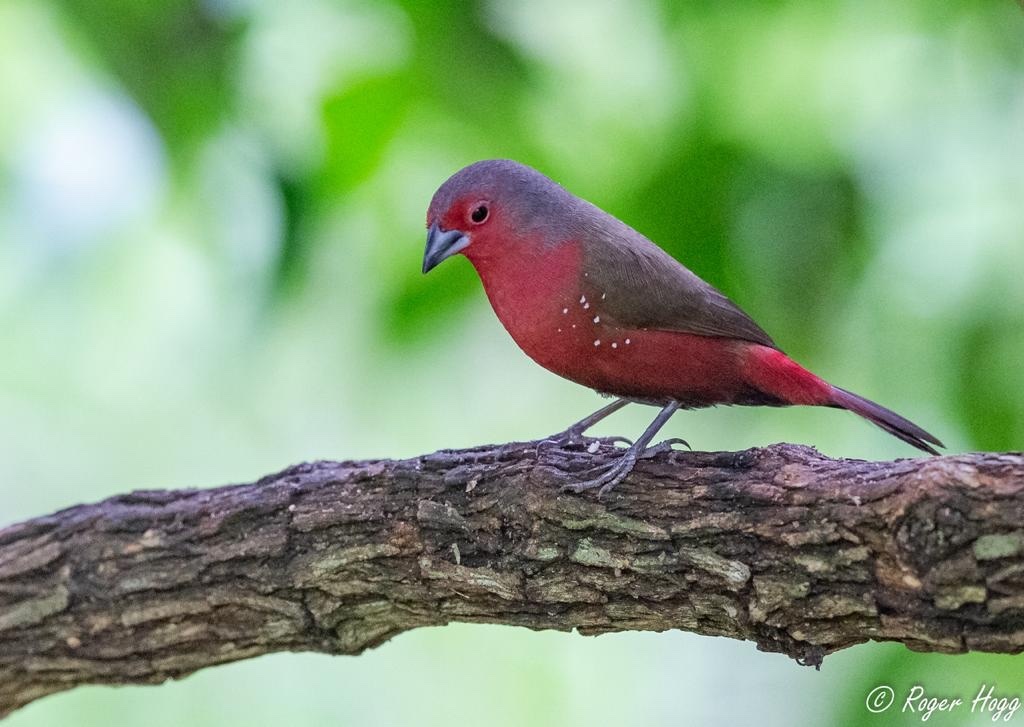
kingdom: Animalia
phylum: Chordata
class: Aves
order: Passeriformes
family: Estrildidae
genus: Lagonosticta
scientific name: Lagonosticta rubricata
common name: African firefinch
